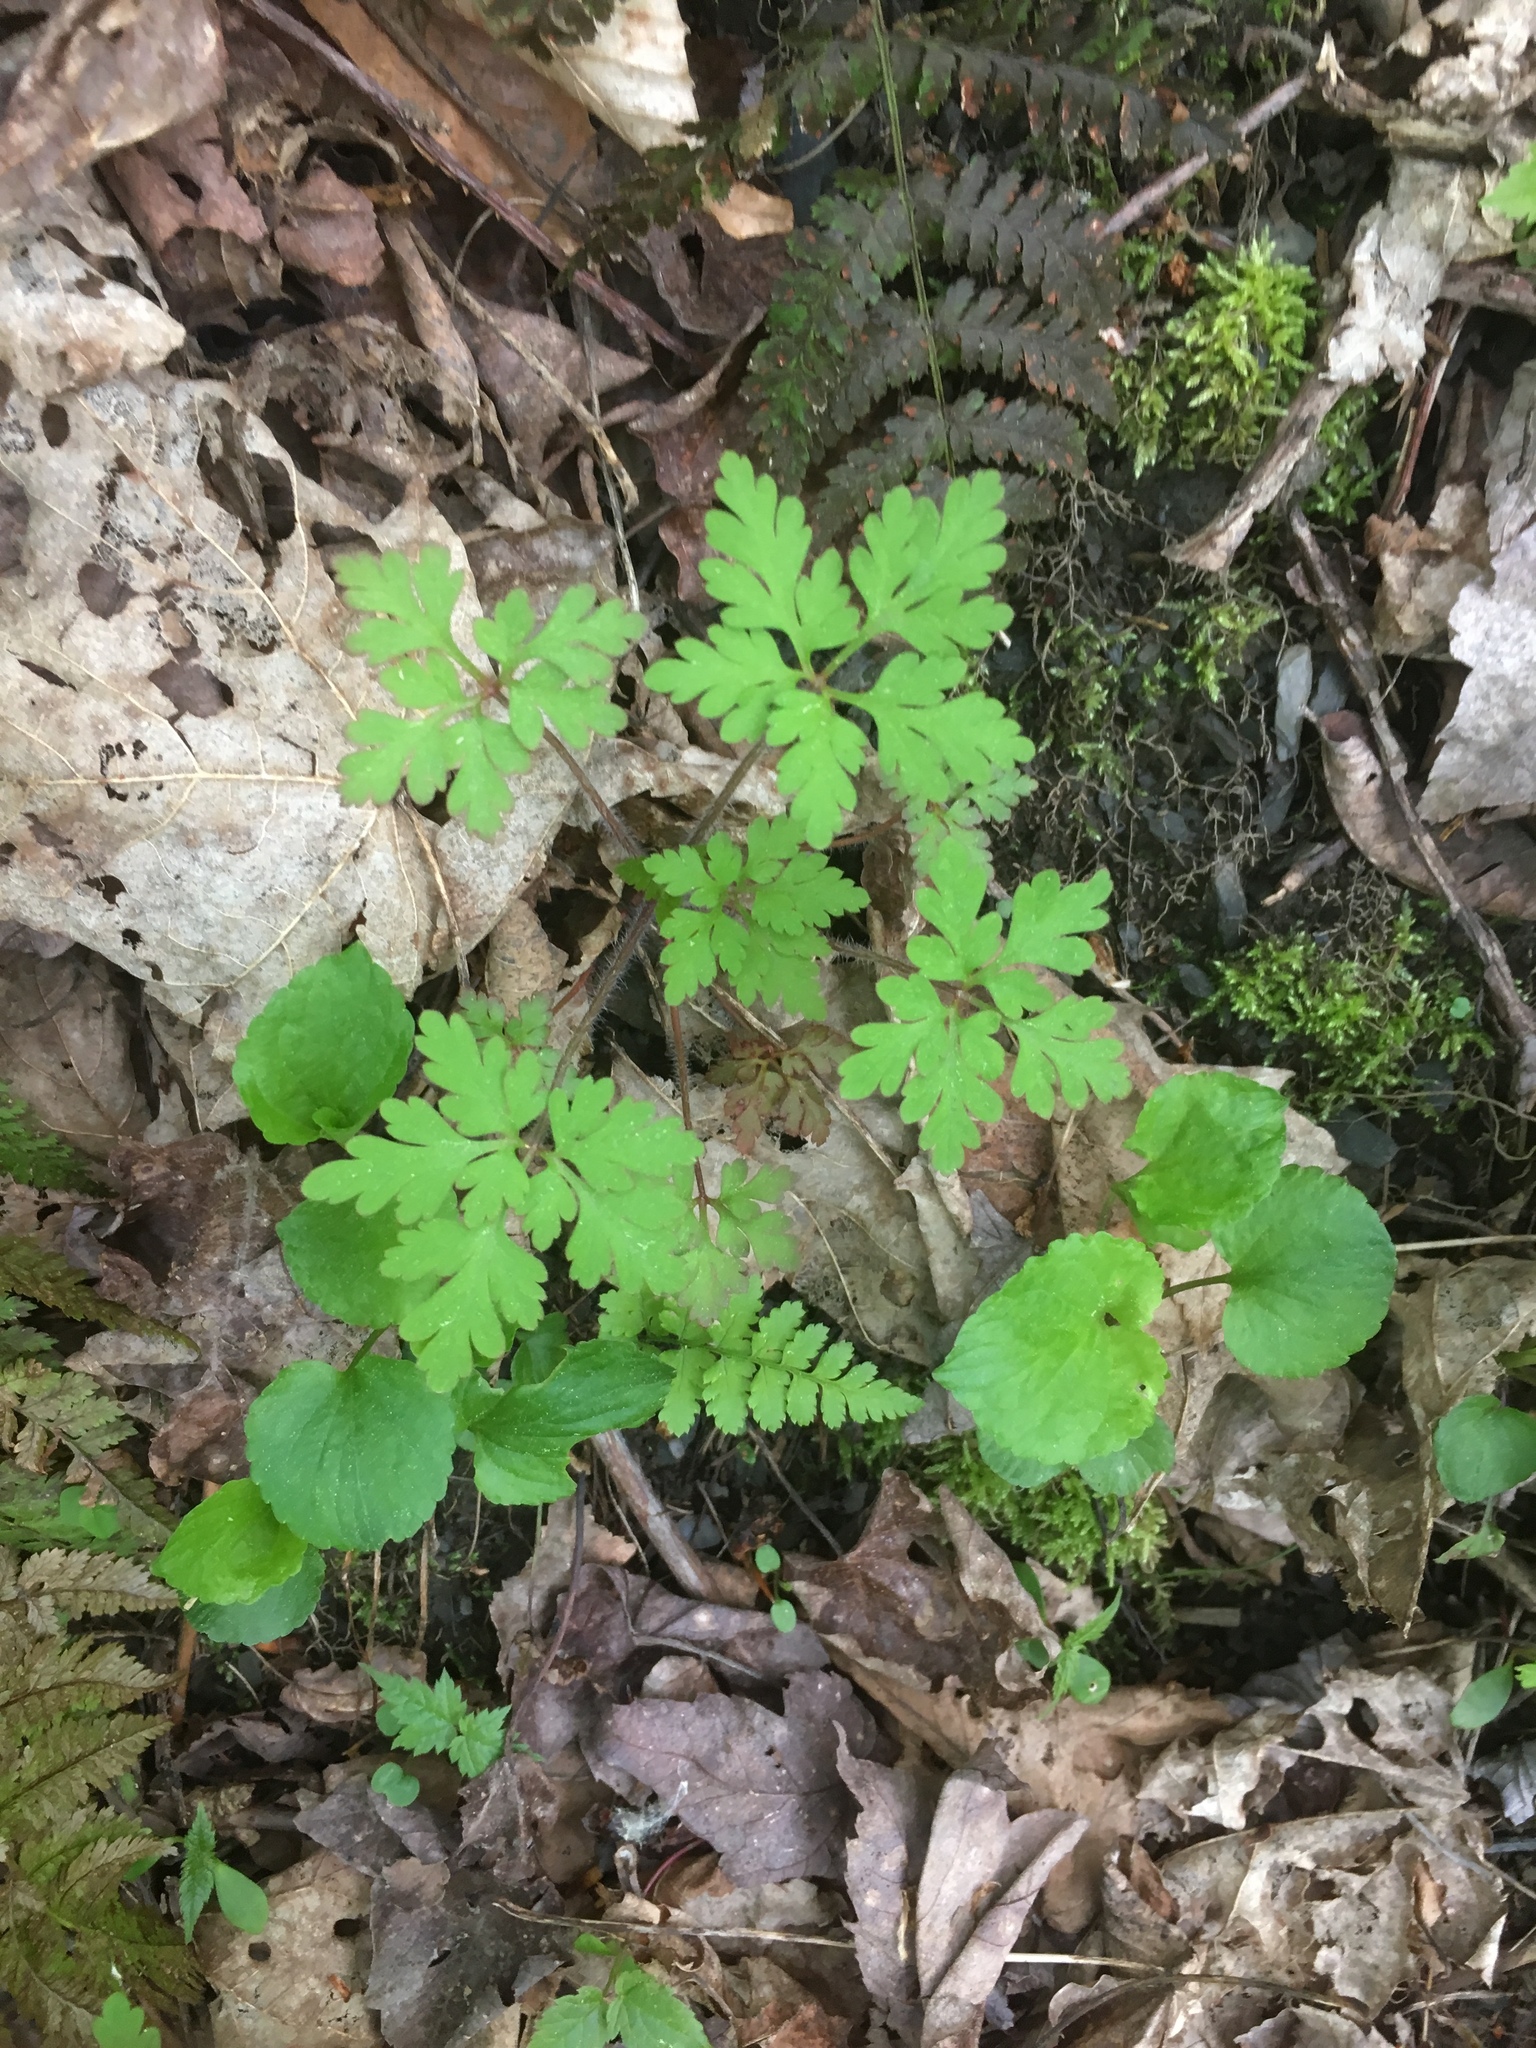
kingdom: Plantae
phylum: Tracheophyta
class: Magnoliopsida
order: Geraniales
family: Geraniaceae
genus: Geranium
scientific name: Geranium robertianum
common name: Herb-robert
